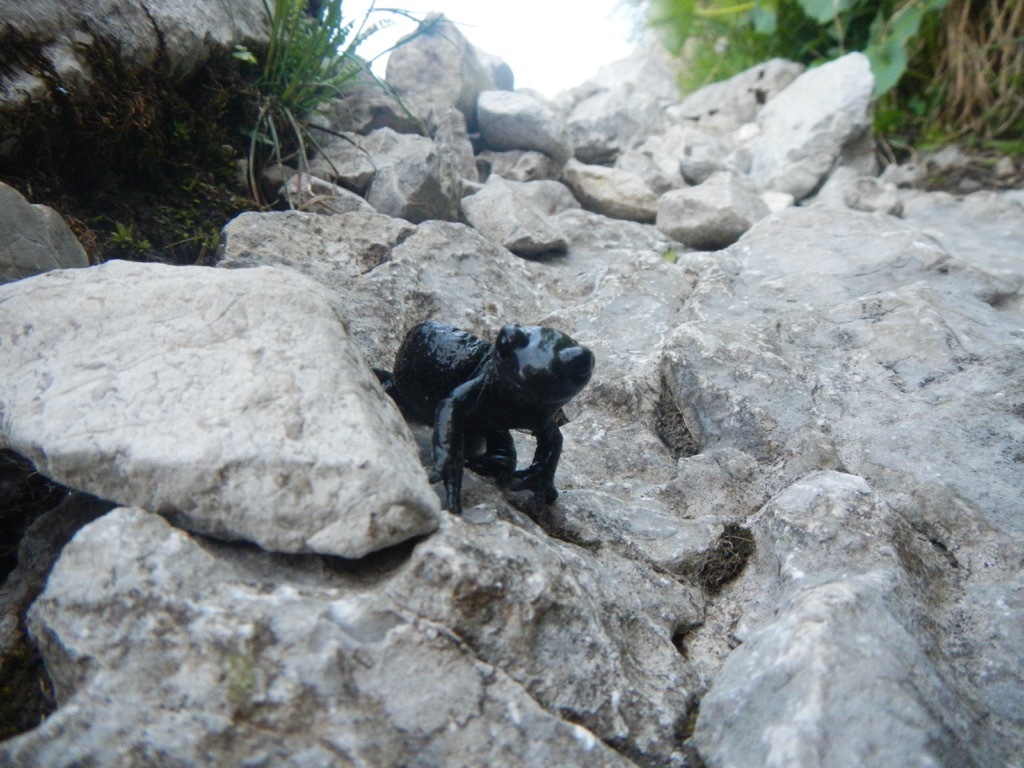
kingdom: Animalia
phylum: Chordata
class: Amphibia
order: Caudata
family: Salamandridae
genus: Salamandra
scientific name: Salamandra atra
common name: Alpine salamander
